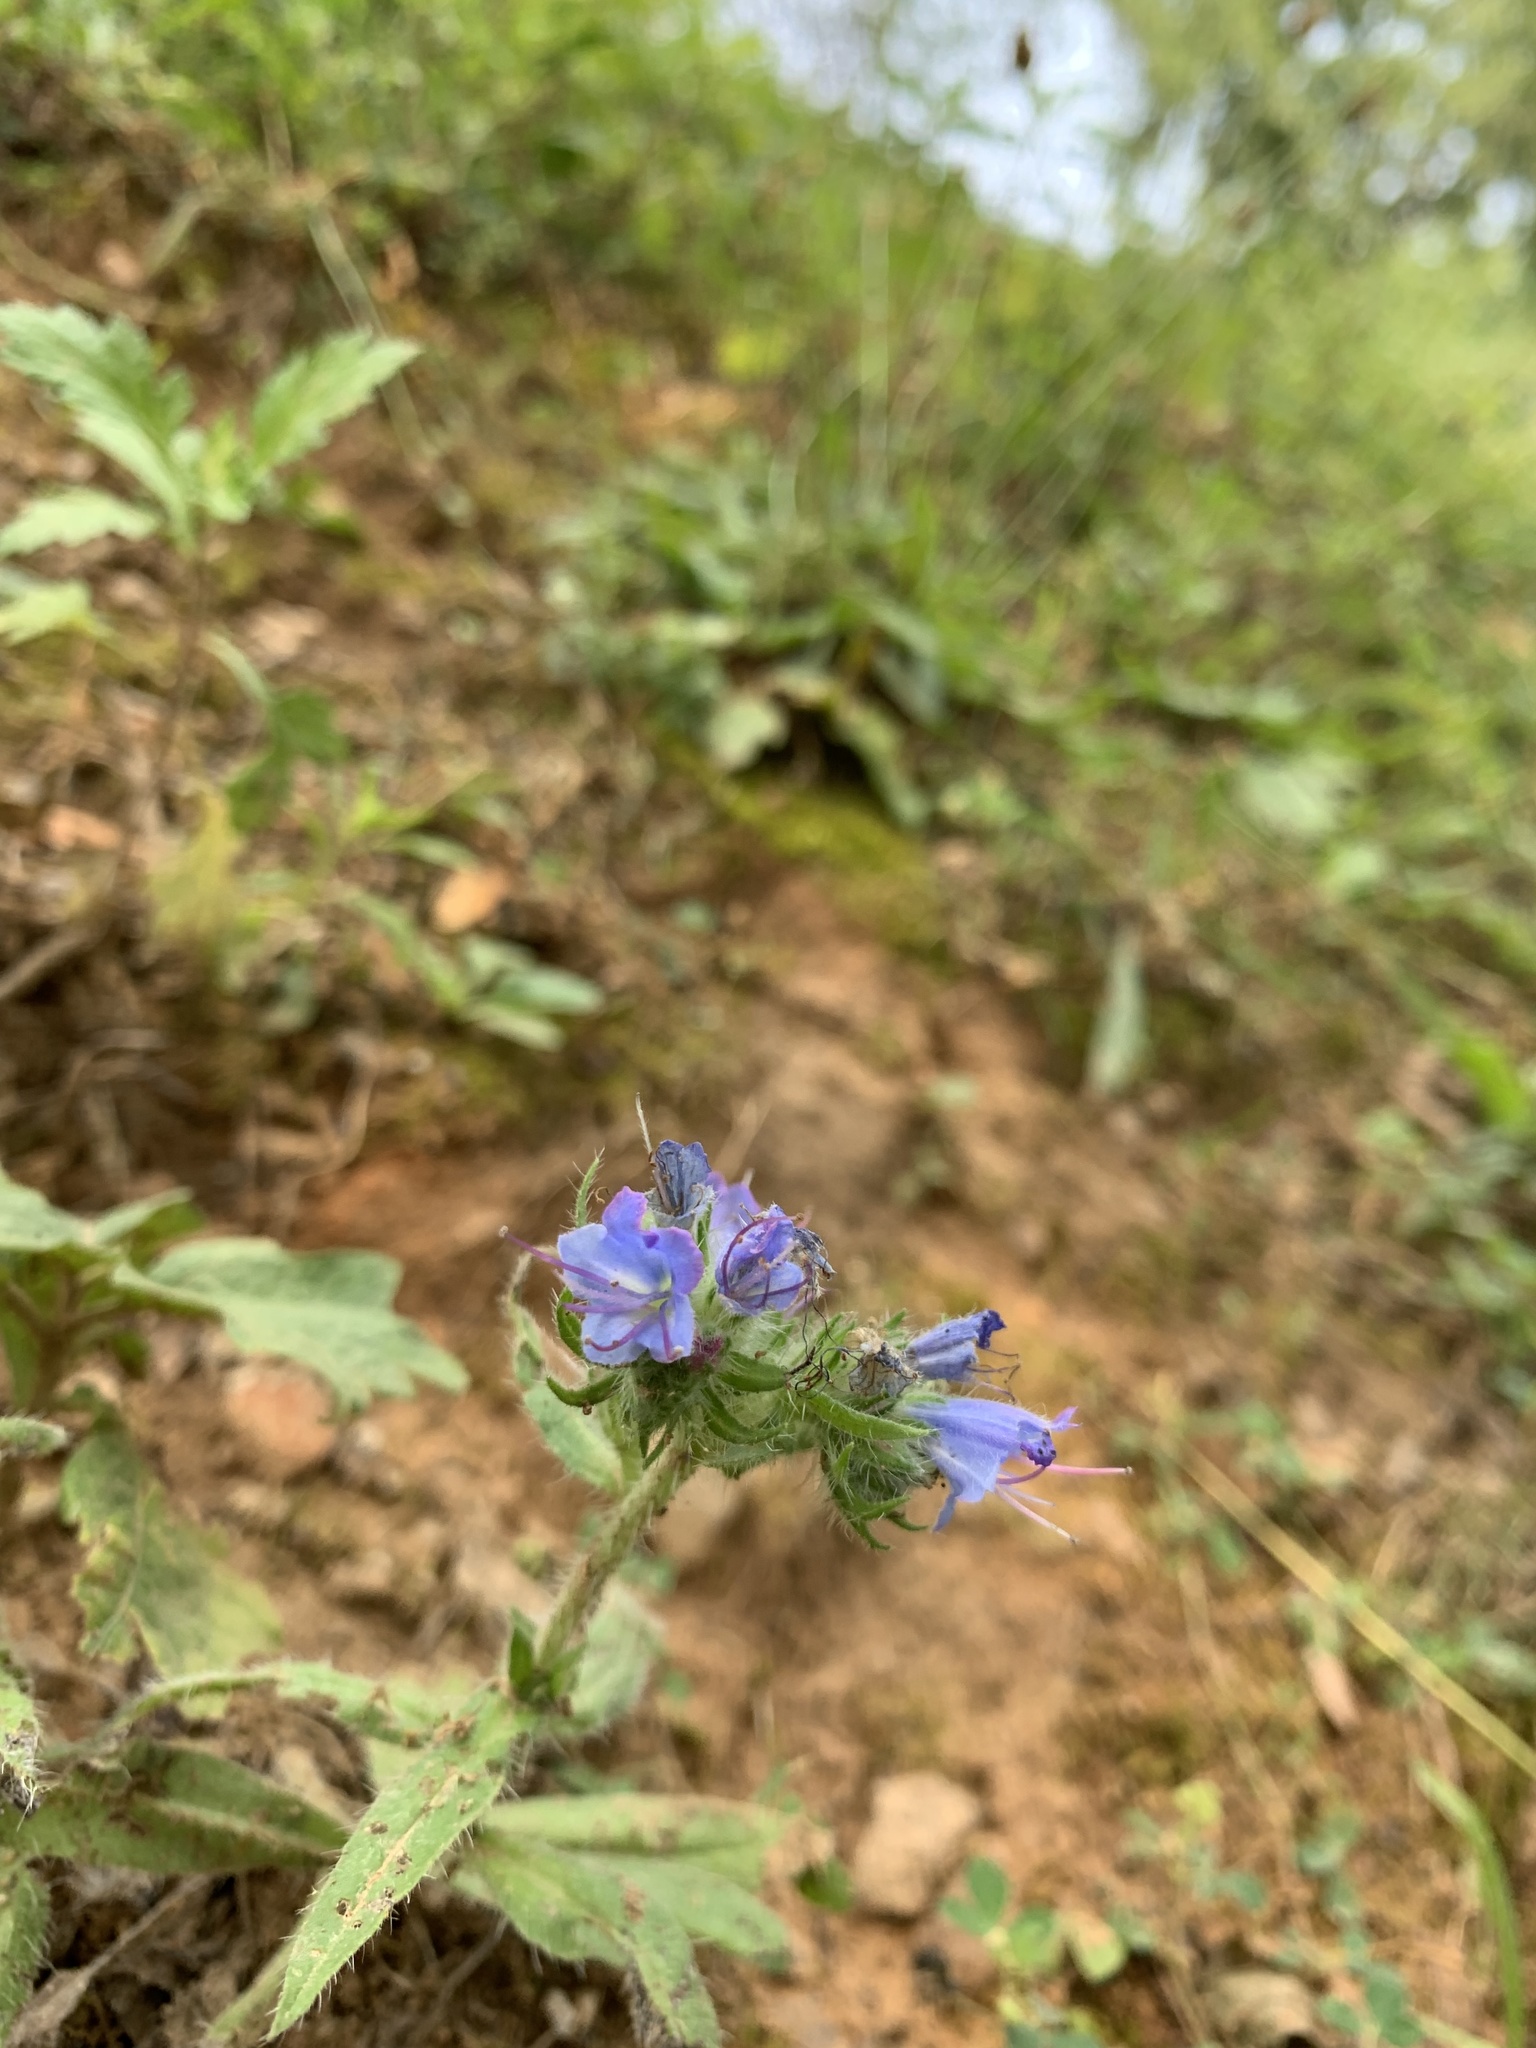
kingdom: Plantae
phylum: Tracheophyta
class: Magnoliopsida
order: Boraginales
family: Boraginaceae
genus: Echium
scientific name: Echium vulgare
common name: Common viper's bugloss
